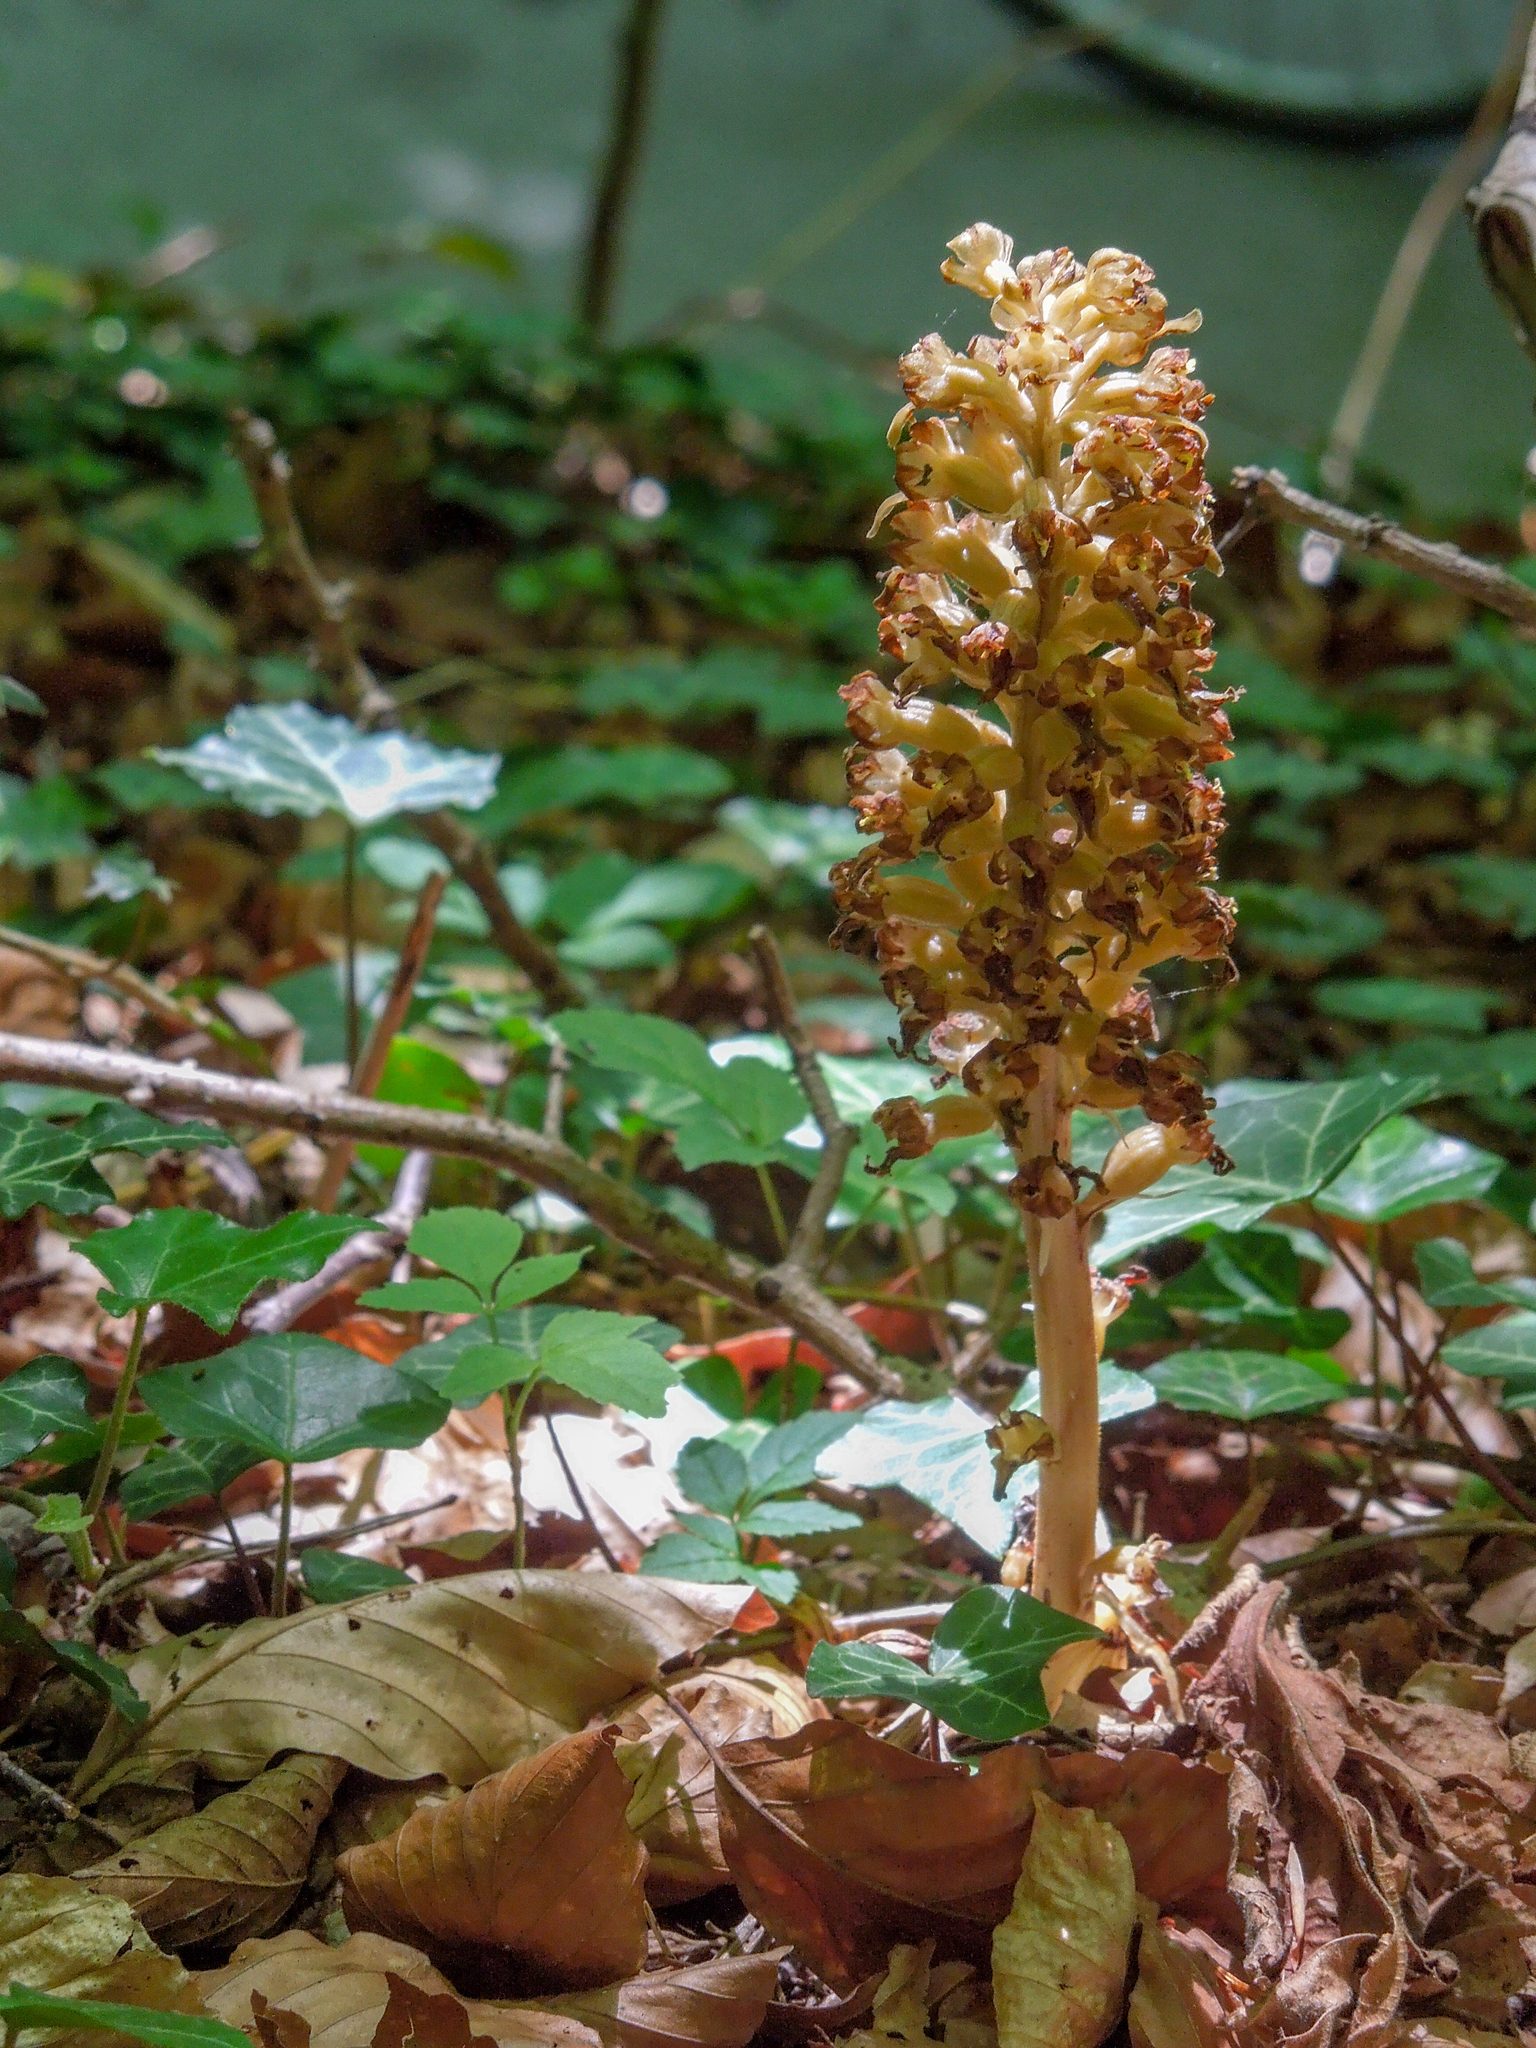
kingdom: Plantae
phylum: Tracheophyta
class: Liliopsida
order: Asparagales
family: Orchidaceae
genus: Neottia
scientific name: Neottia nidus-avis
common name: Bird's-nest orchid
